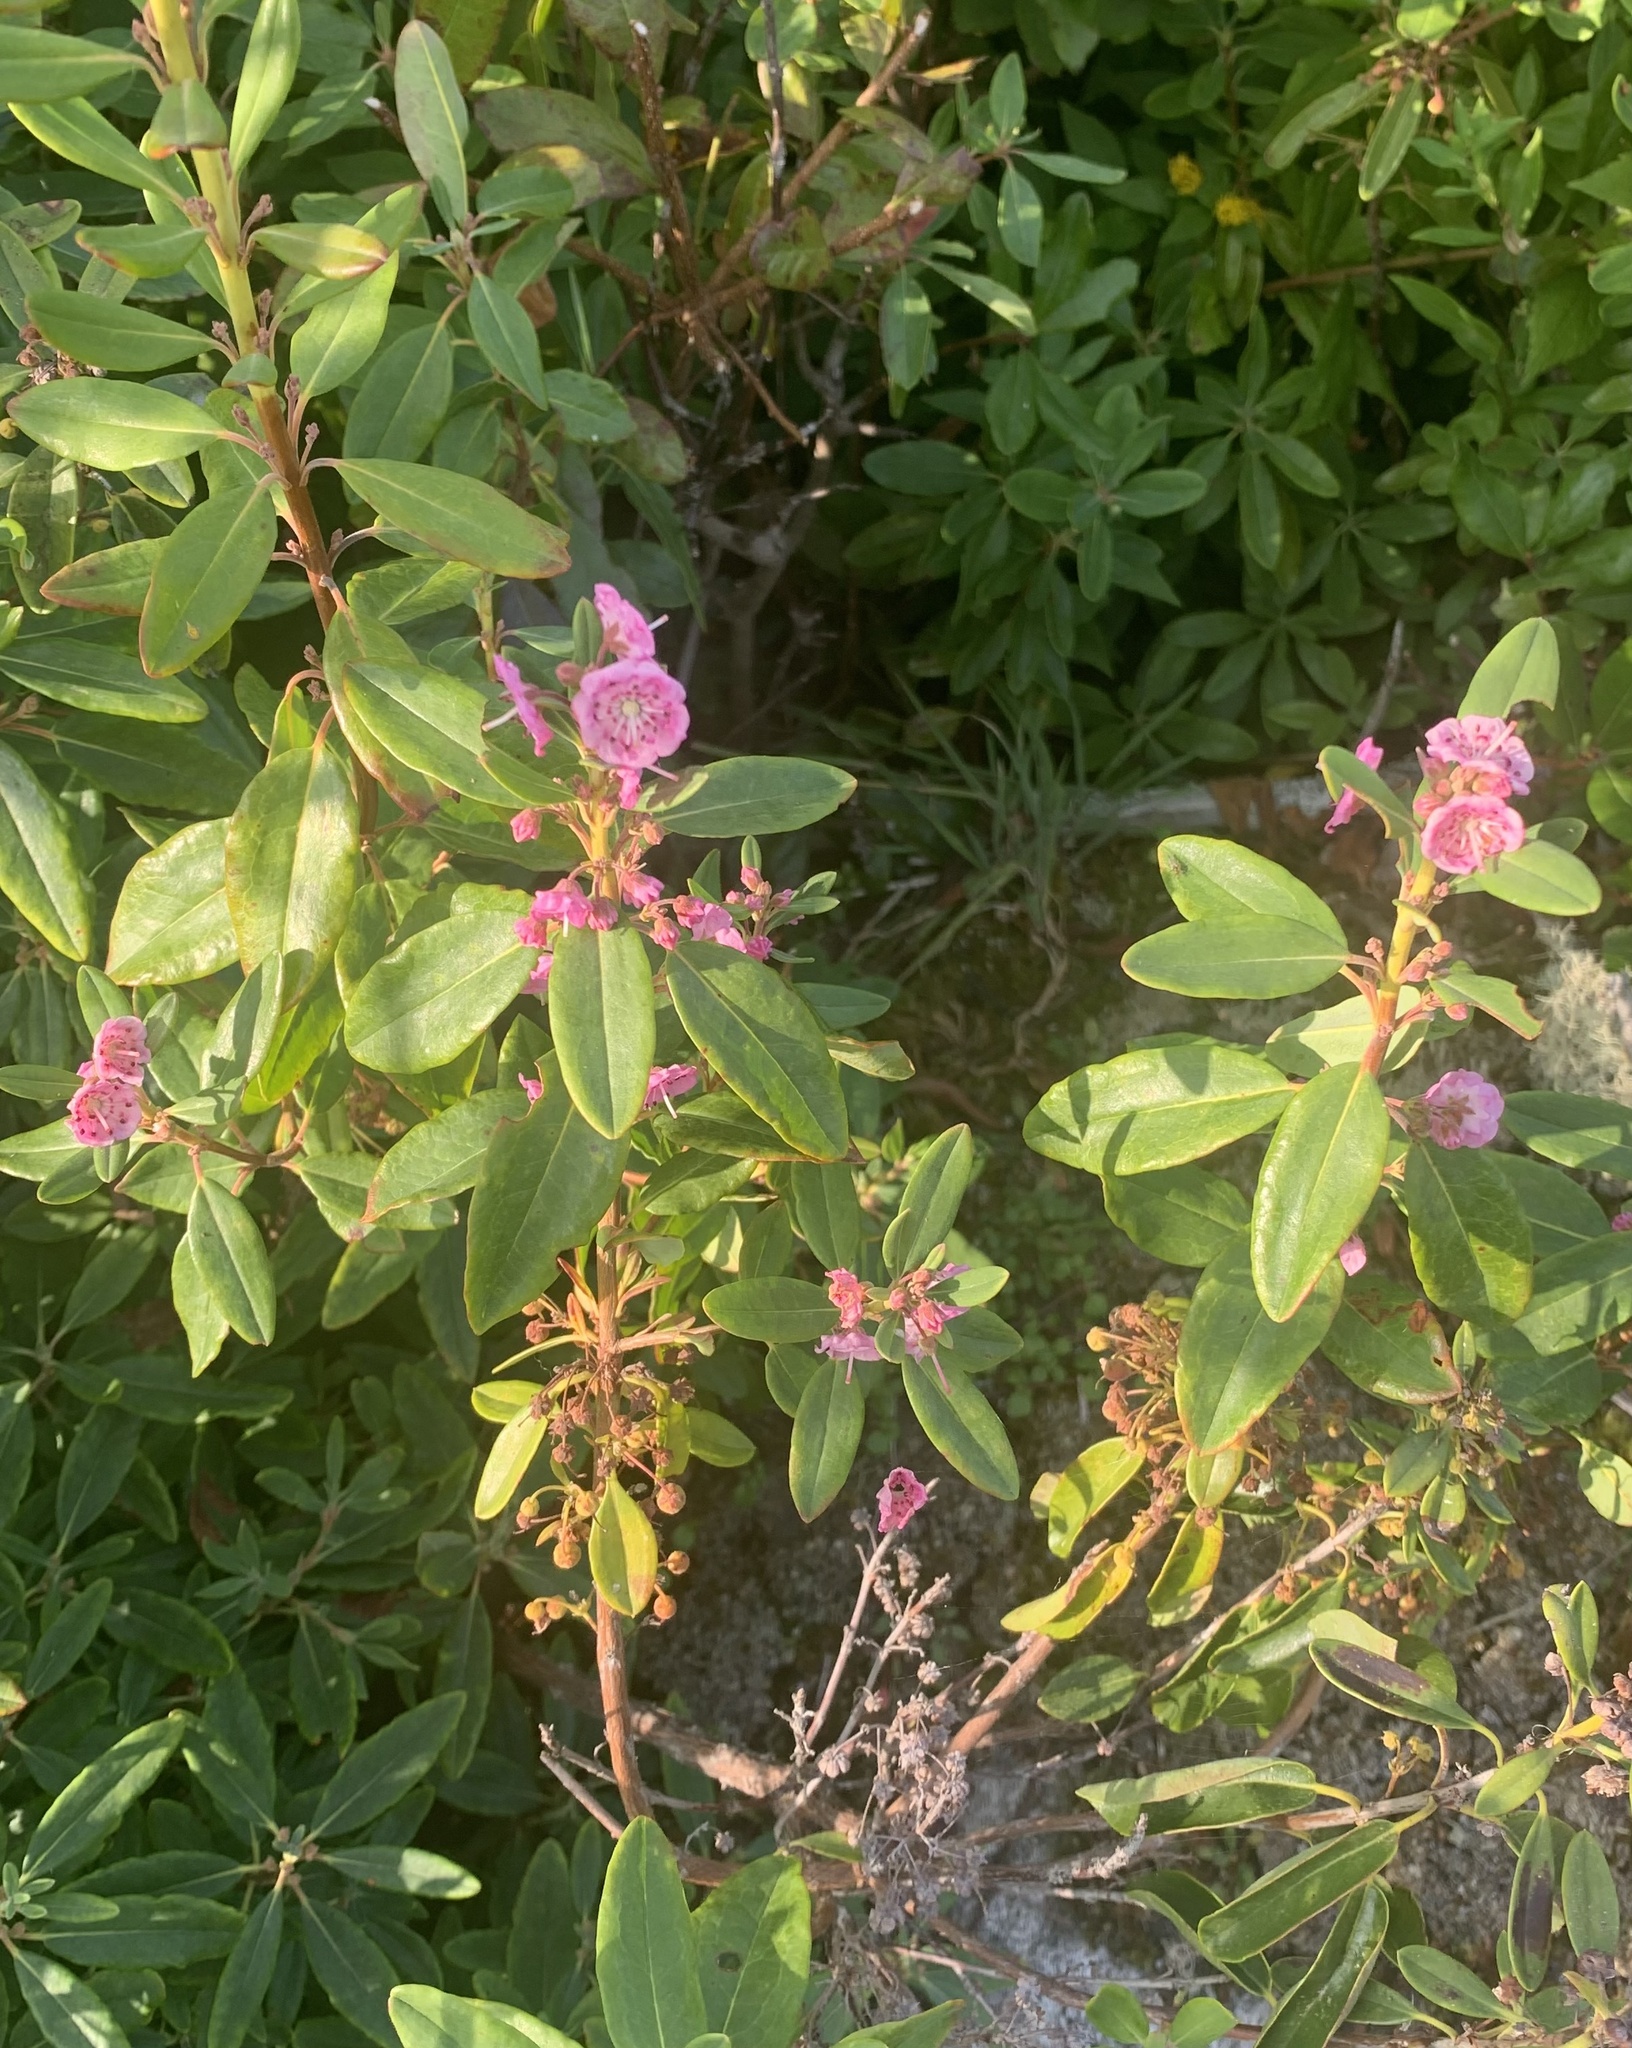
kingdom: Plantae
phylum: Tracheophyta
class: Magnoliopsida
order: Ericales
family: Ericaceae
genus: Kalmia
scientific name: Kalmia angustifolia
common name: Sheep-laurel
